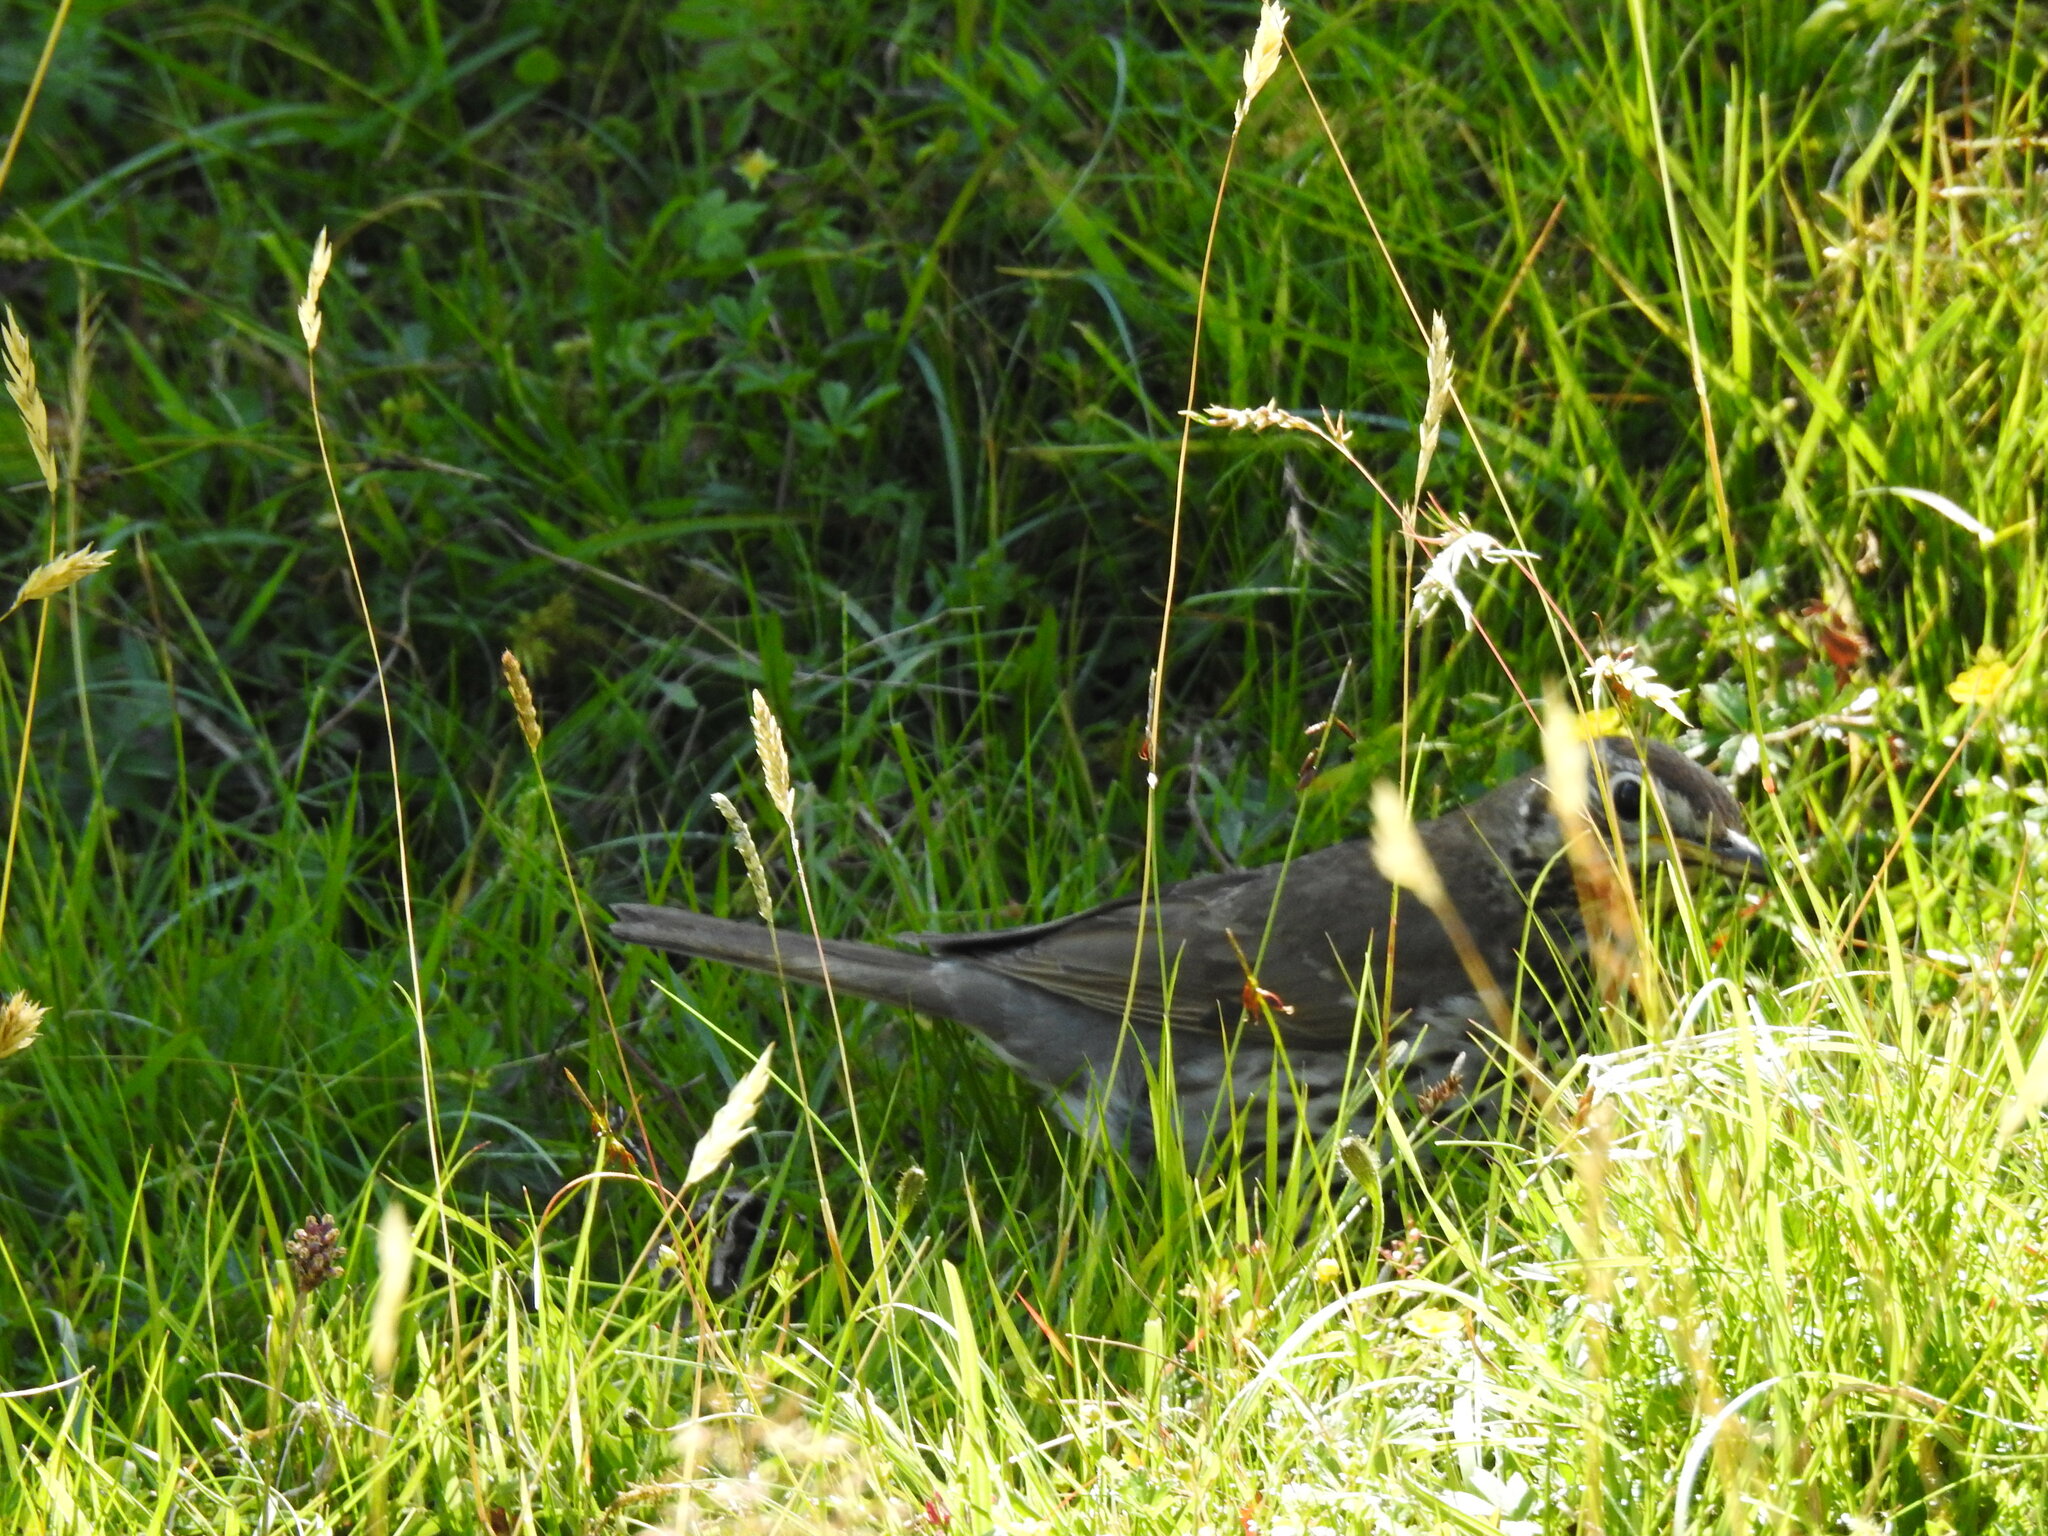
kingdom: Animalia
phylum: Chordata
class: Aves
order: Passeriformes
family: Turdidae
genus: Turdus
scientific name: Turdus philomelos
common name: Song thrush
